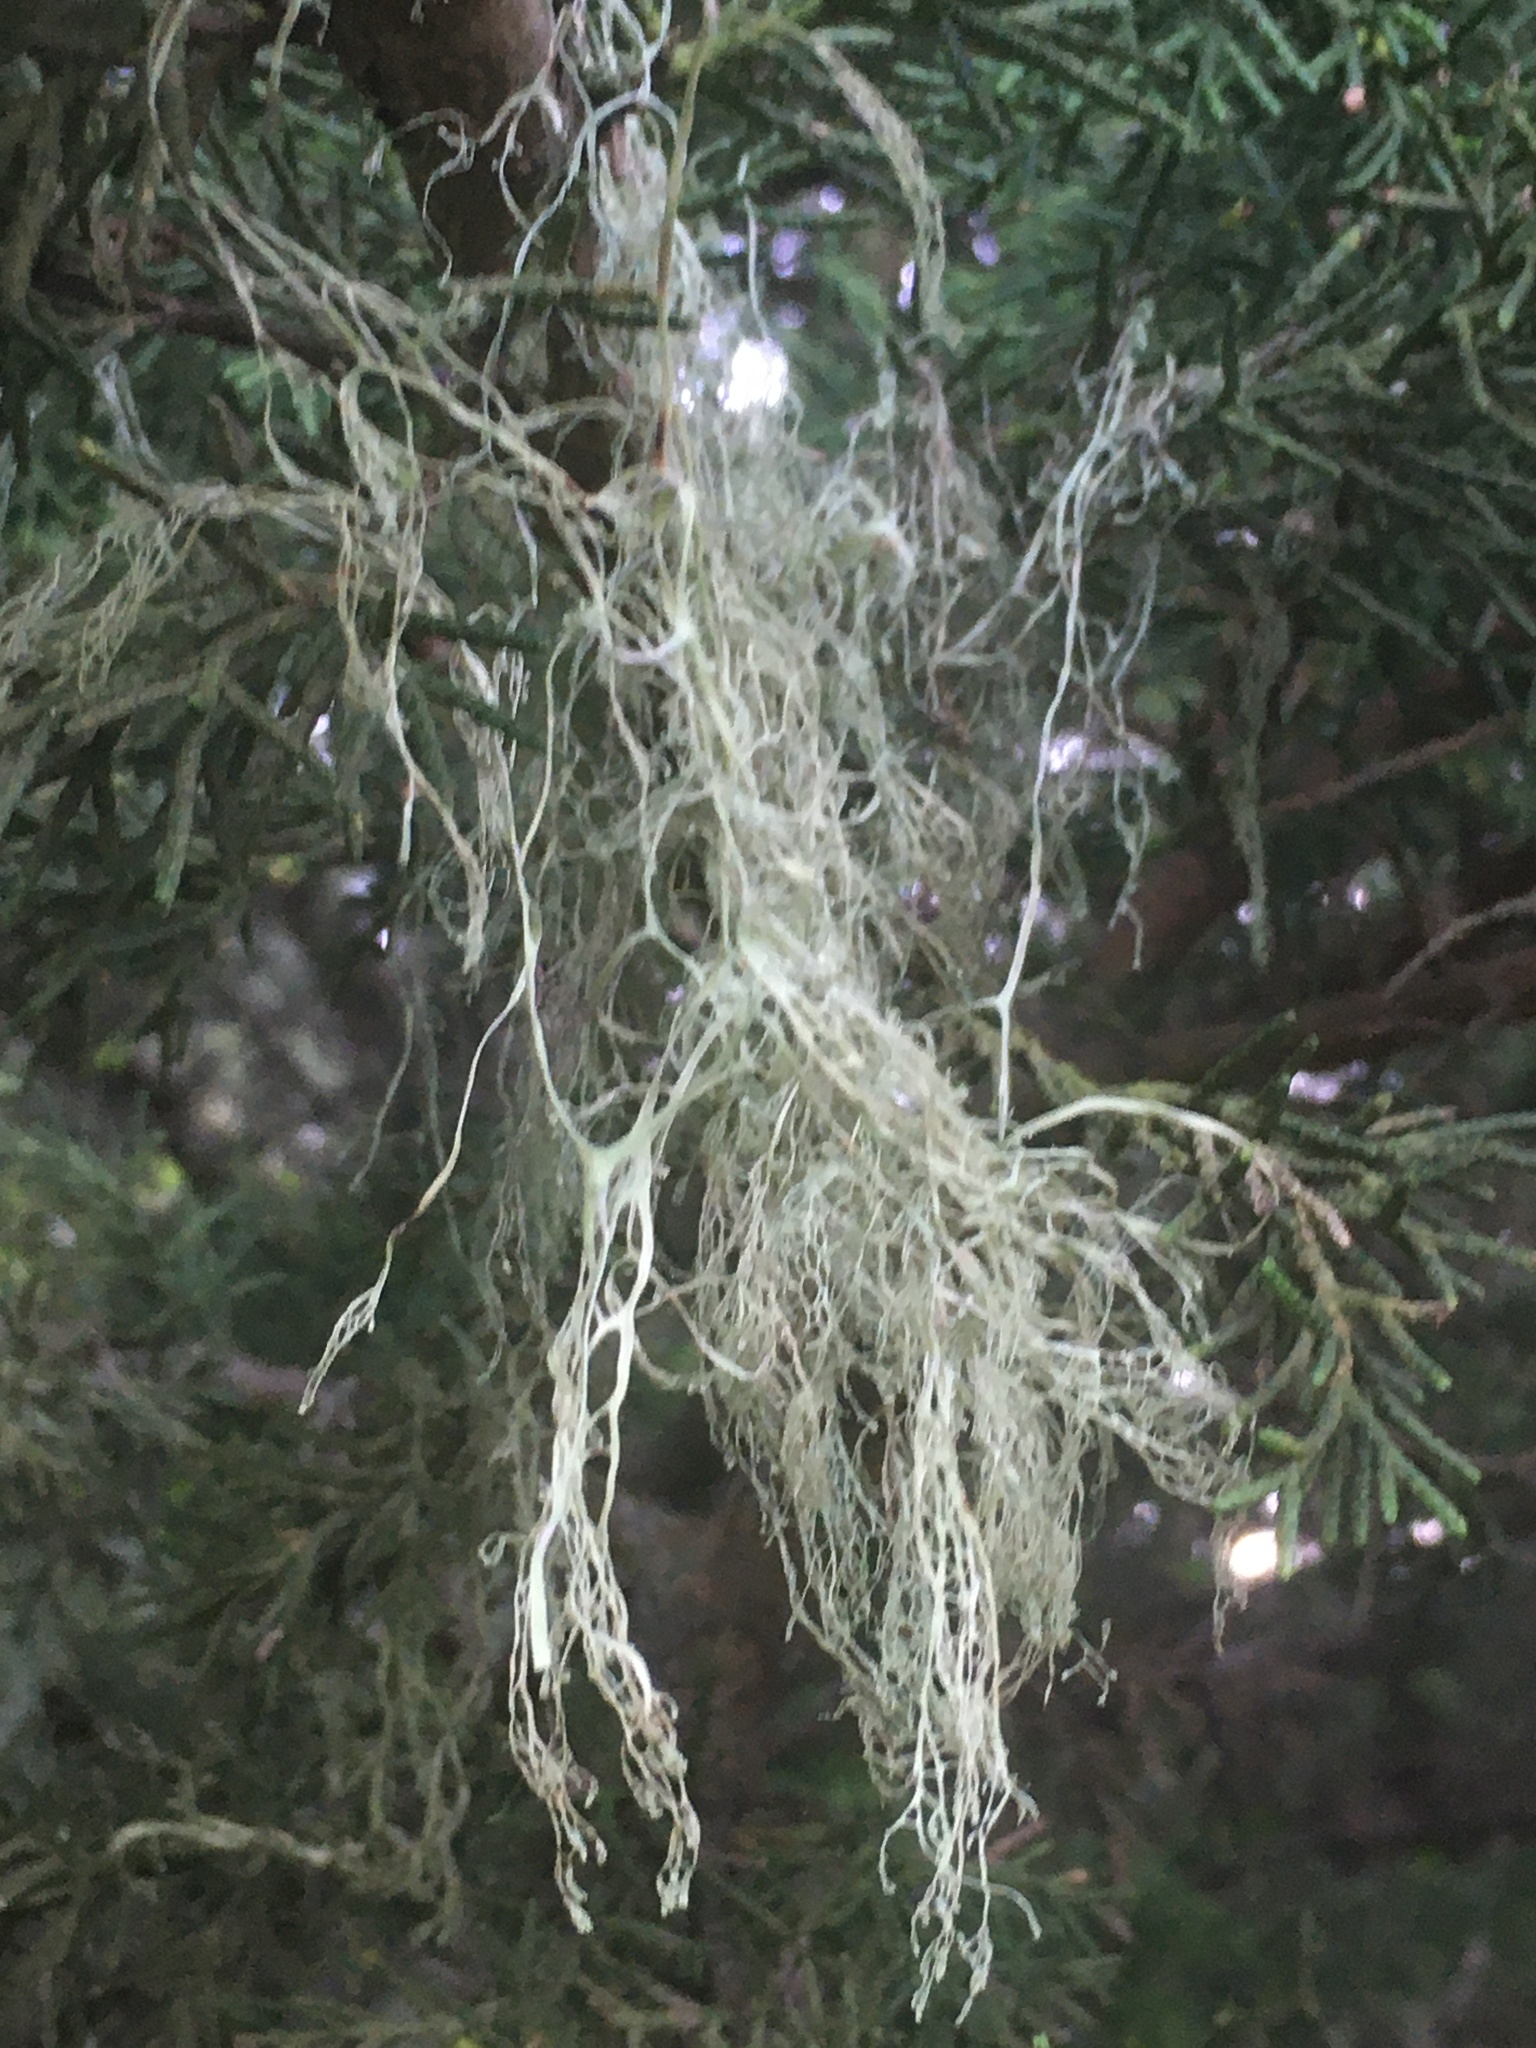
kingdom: Fungi
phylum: Ascomycota
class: Lecanoromycetes
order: Lecanorales
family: Ramalinaceae
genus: Ramalina
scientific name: Ramalina menziesii
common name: Lace lichen
